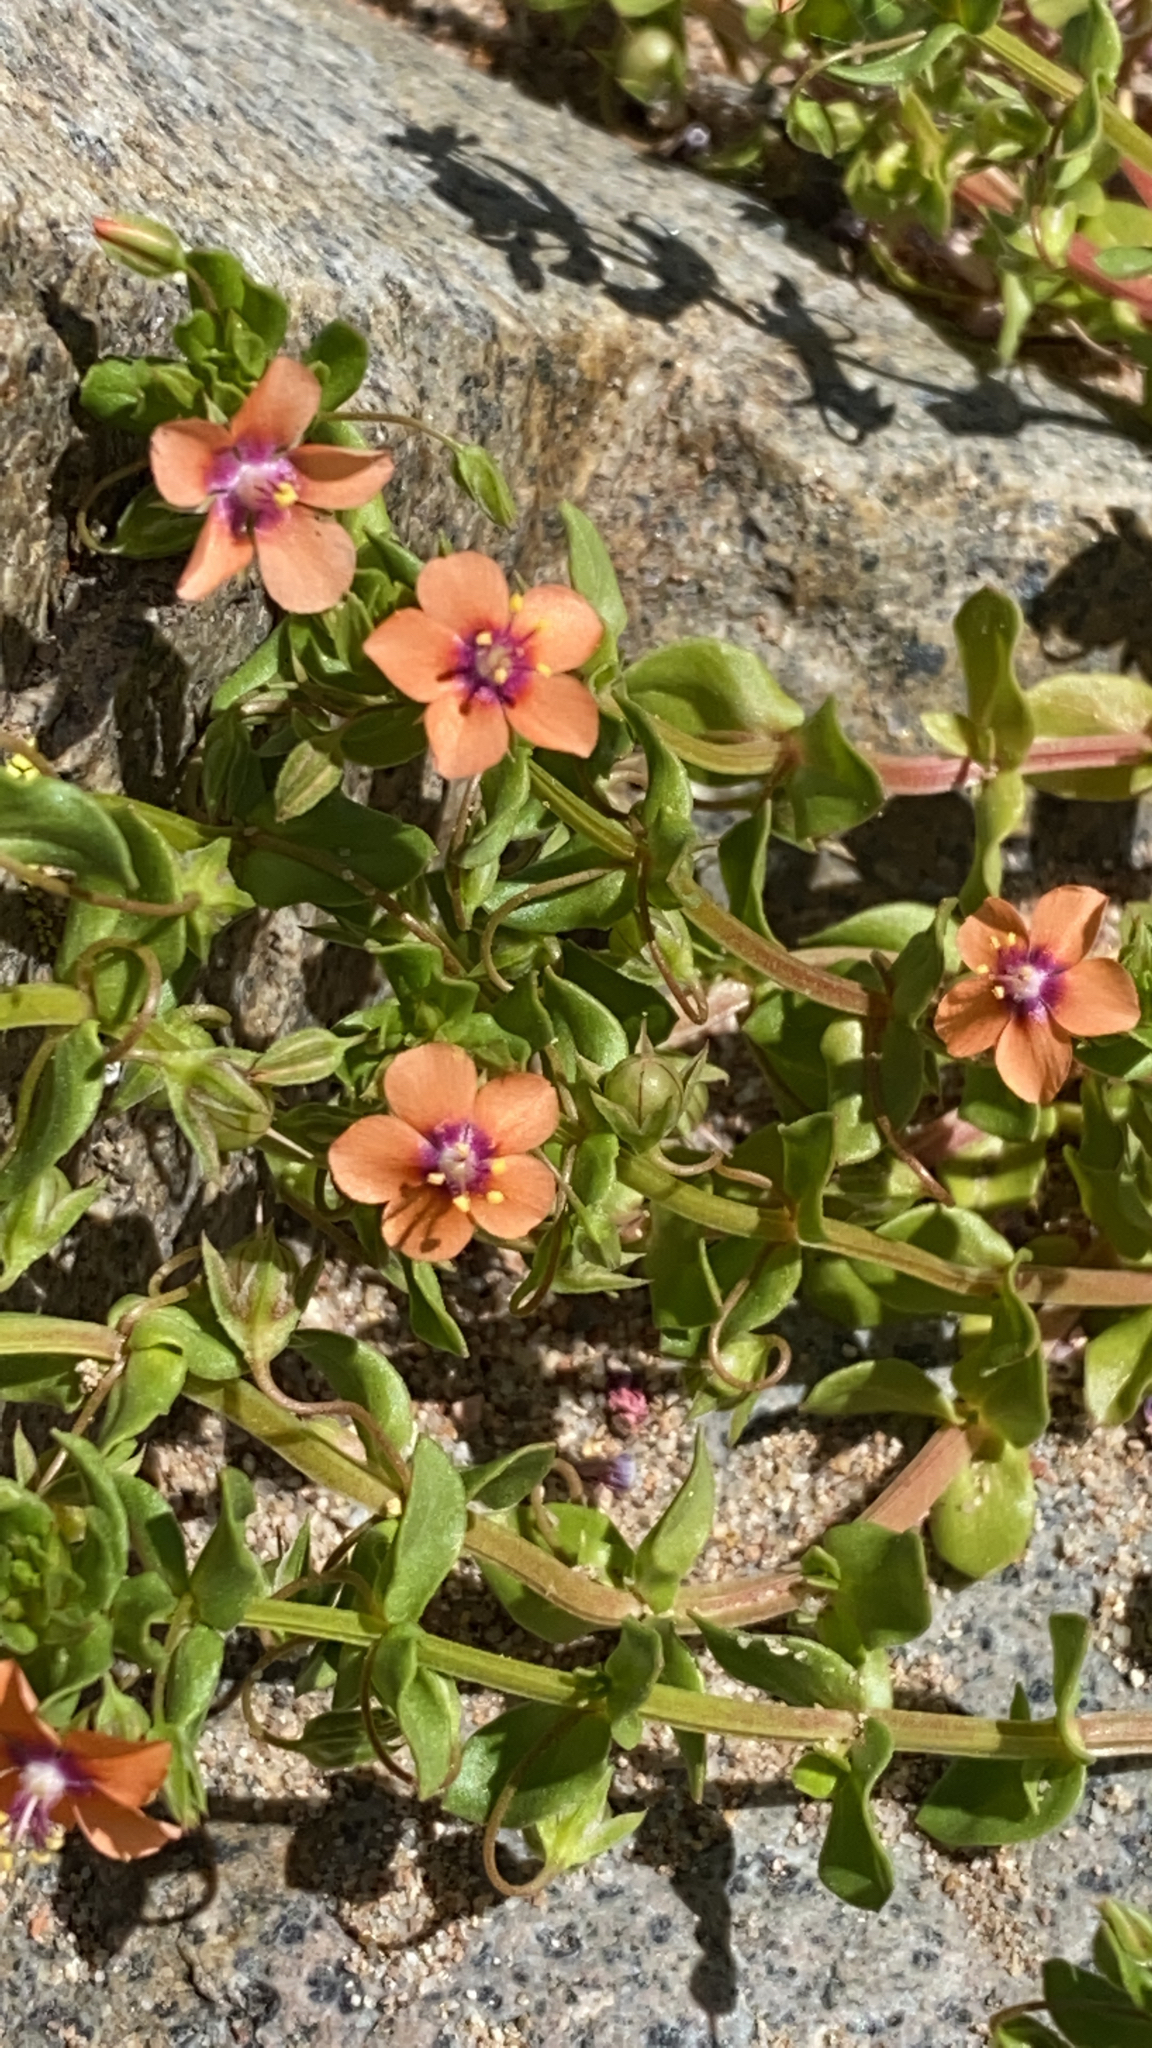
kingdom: Plantae
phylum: Tracheophyta
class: Magnoliopsida
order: Ericales
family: Primulaceae
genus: Lysimachia
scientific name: Lysimachia arvensis
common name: Scarlet pimpernel
